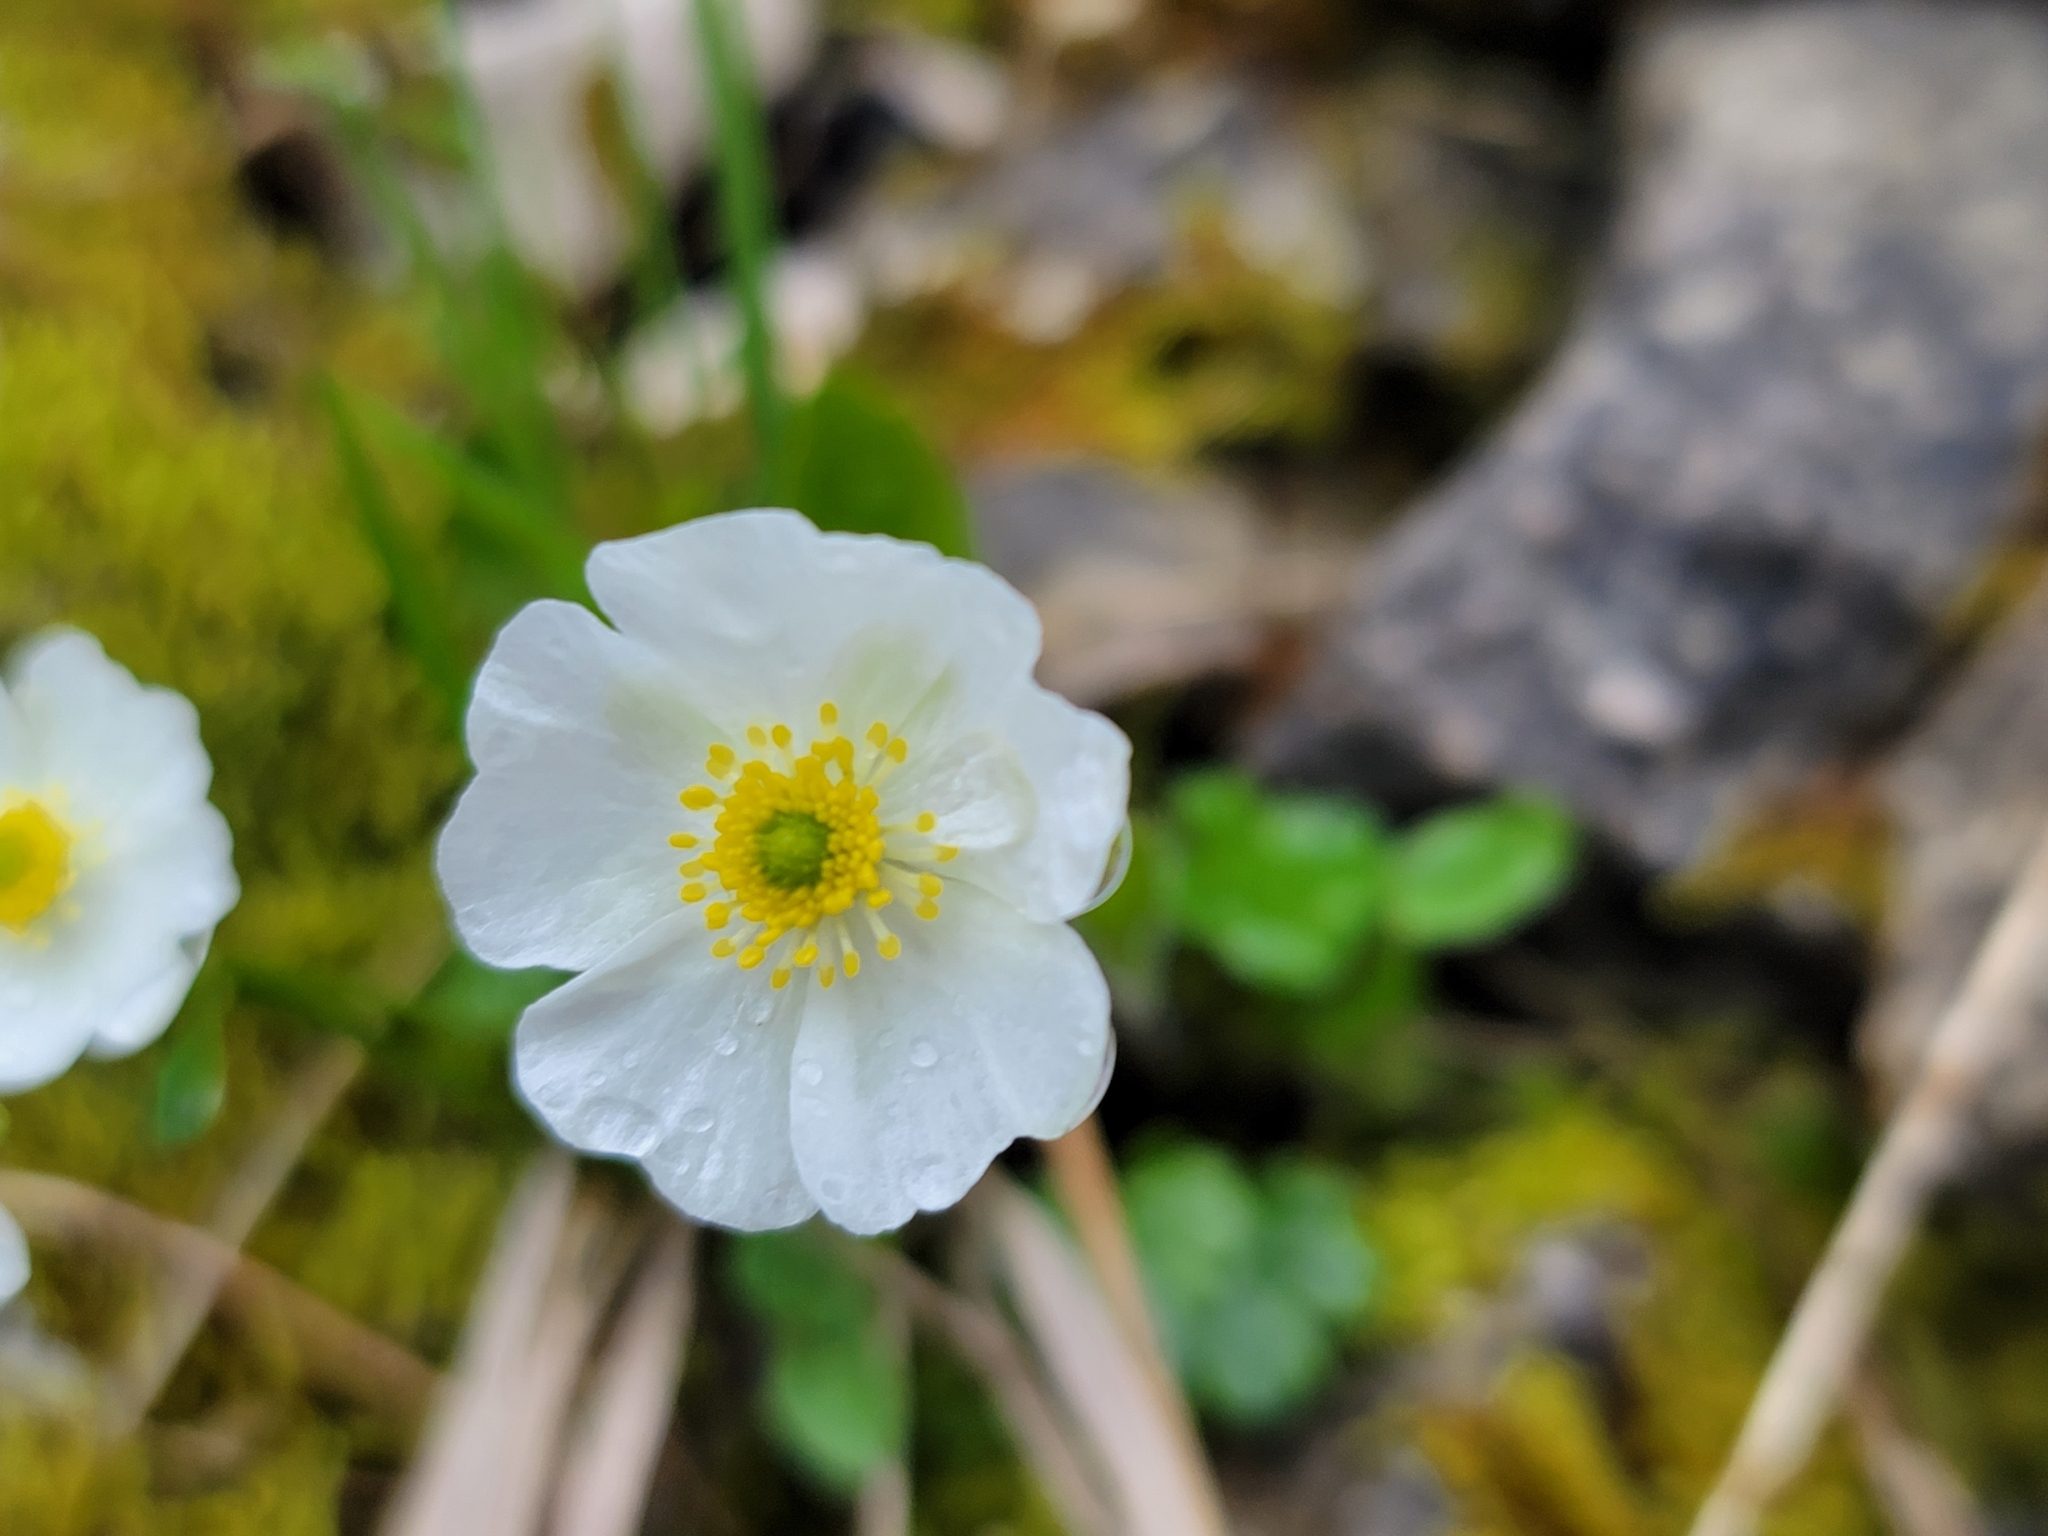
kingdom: Plantae
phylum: Tracheophyta
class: Magnoliopsida
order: Ranunculales
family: Ranunculaceae
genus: Ranunculus
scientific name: Ranunculus alpestris
